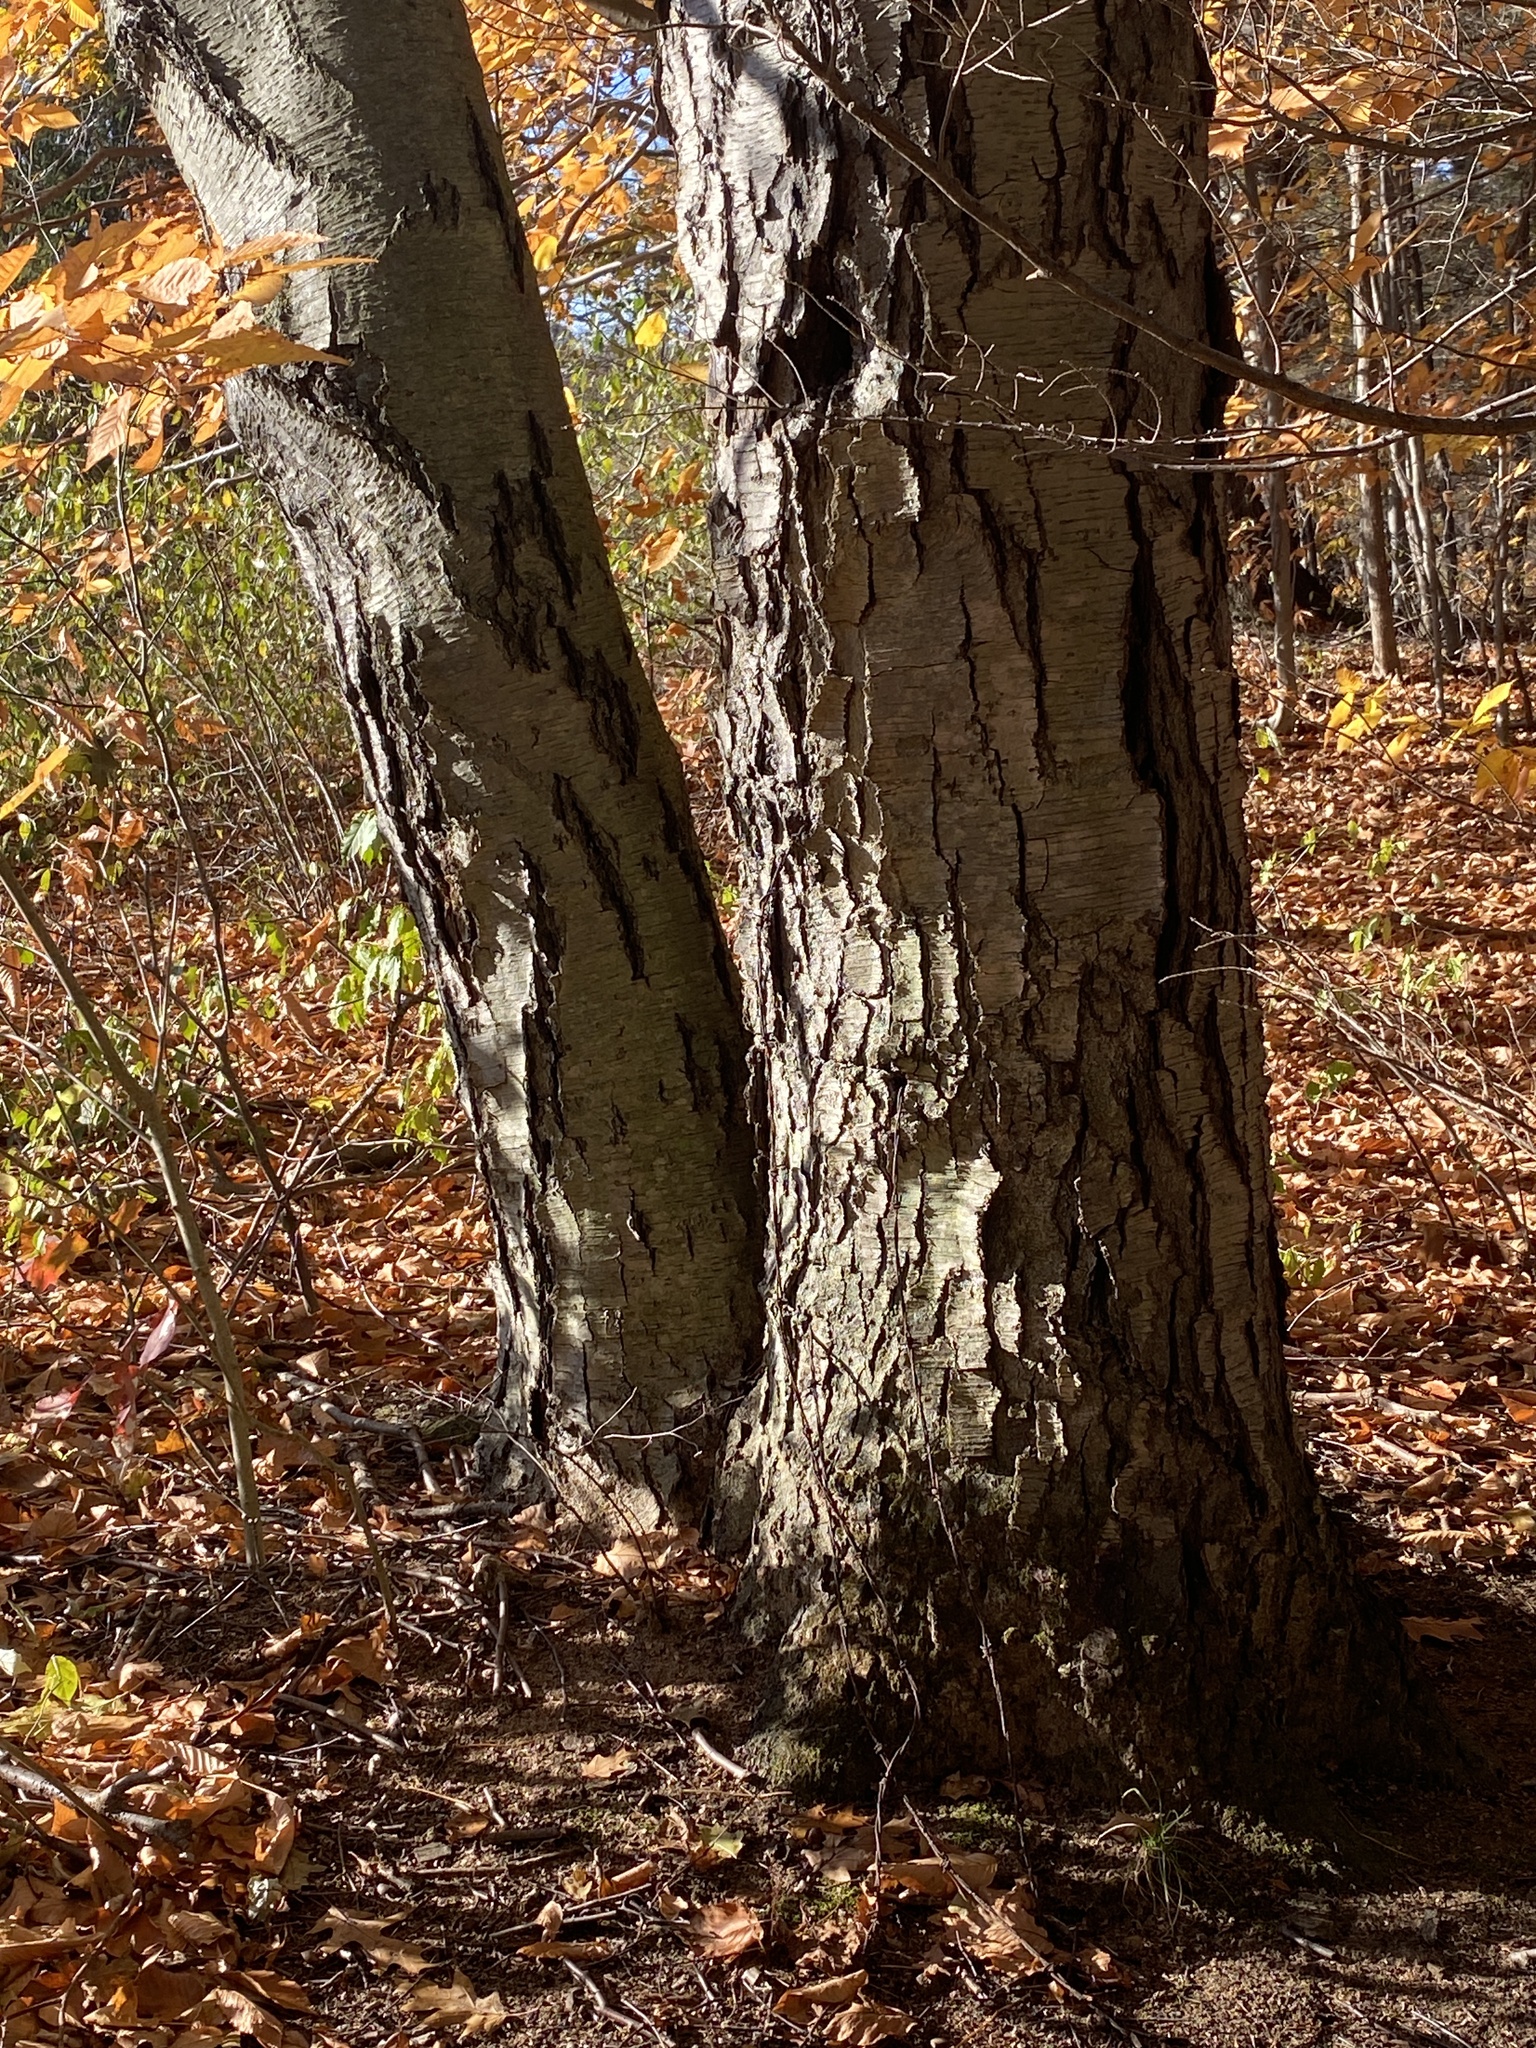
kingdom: Plantae
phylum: Tracheophyta
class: Magnoliopsida
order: Fagales
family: Betulaceae
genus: Betula
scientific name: Betula lenta
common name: Black birch
